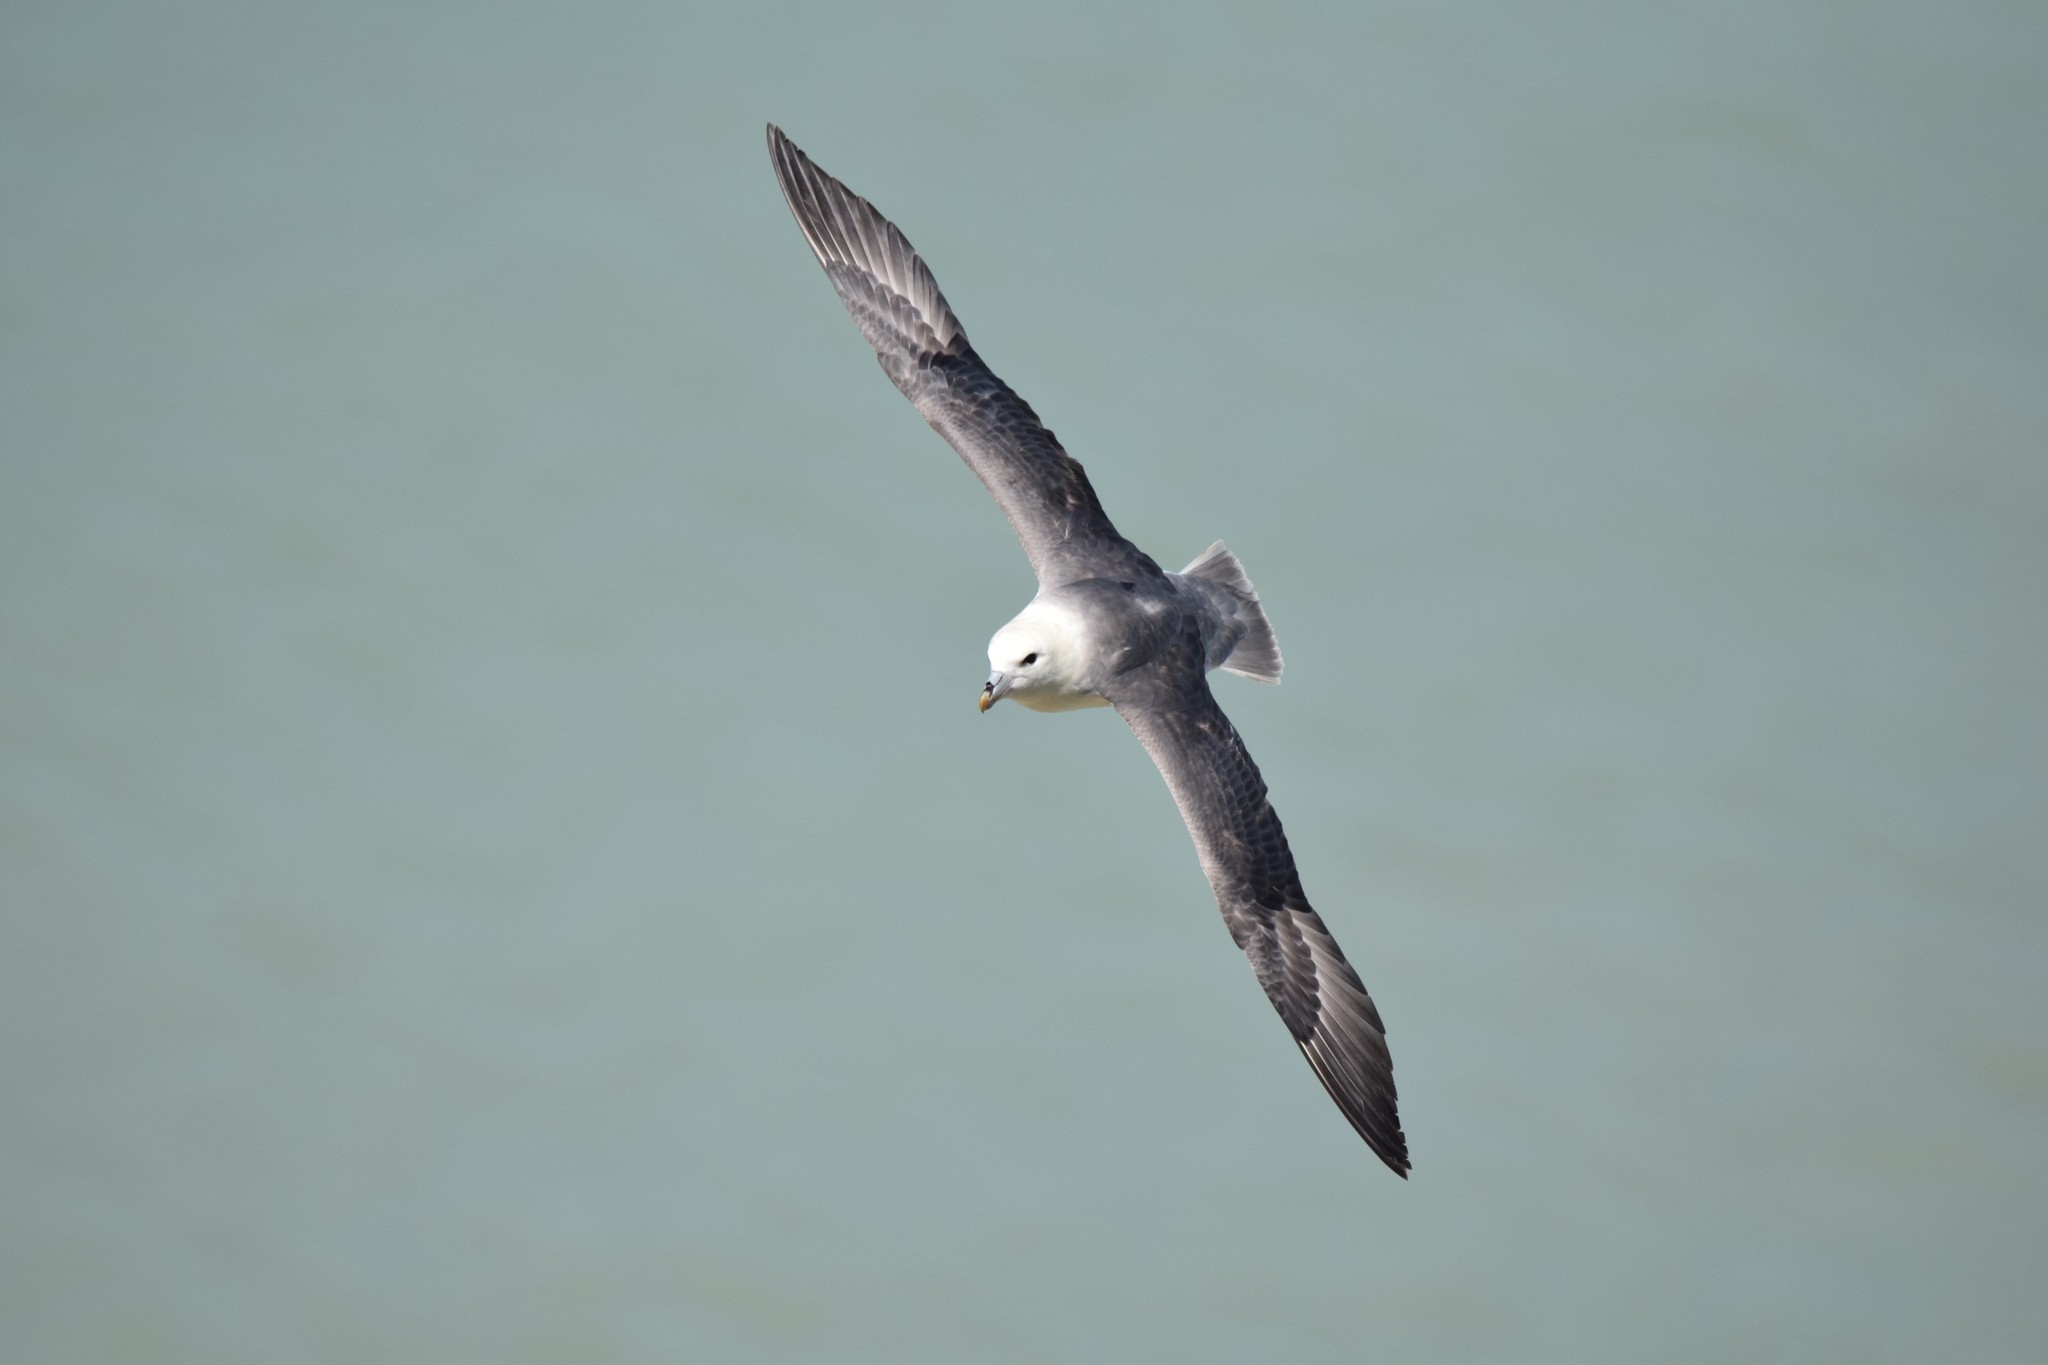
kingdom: Animalia
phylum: Chordata
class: Aves
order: Procellariiformes
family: Procellariidae
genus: Fulmarus
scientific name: Fulmarus glacialis
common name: Northern fulmar
